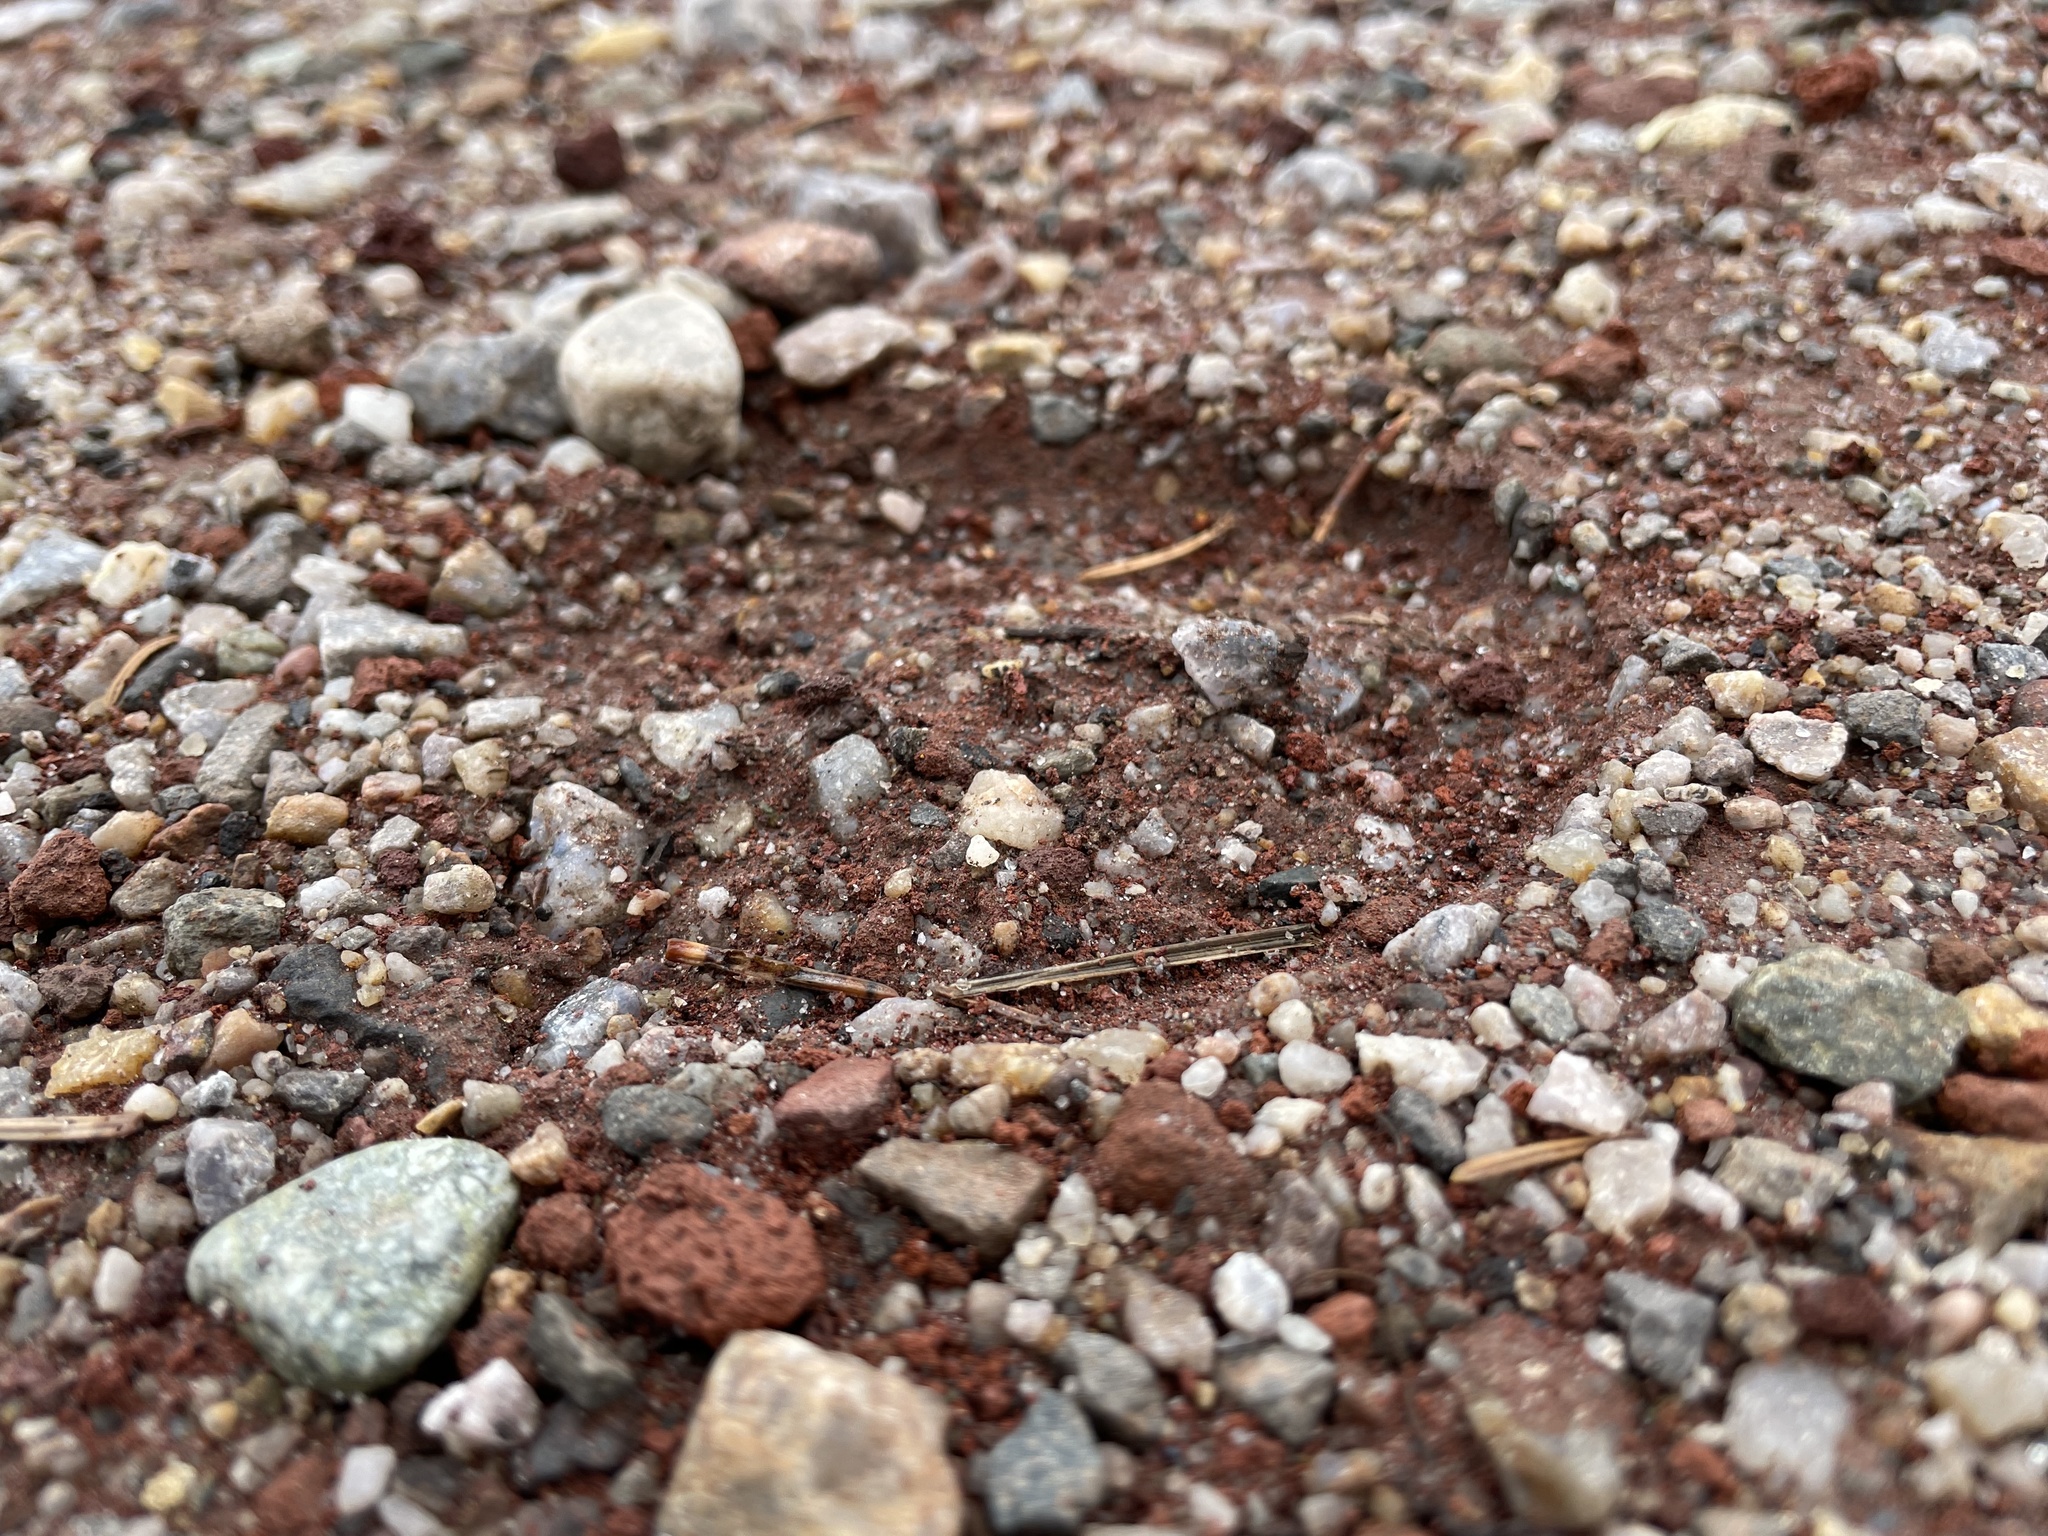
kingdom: Animalia
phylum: Chordata
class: Mammalia
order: Artiodactyla
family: Cervidae
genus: Odocoileus
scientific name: Odocoileus hemionus
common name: Mule deer
